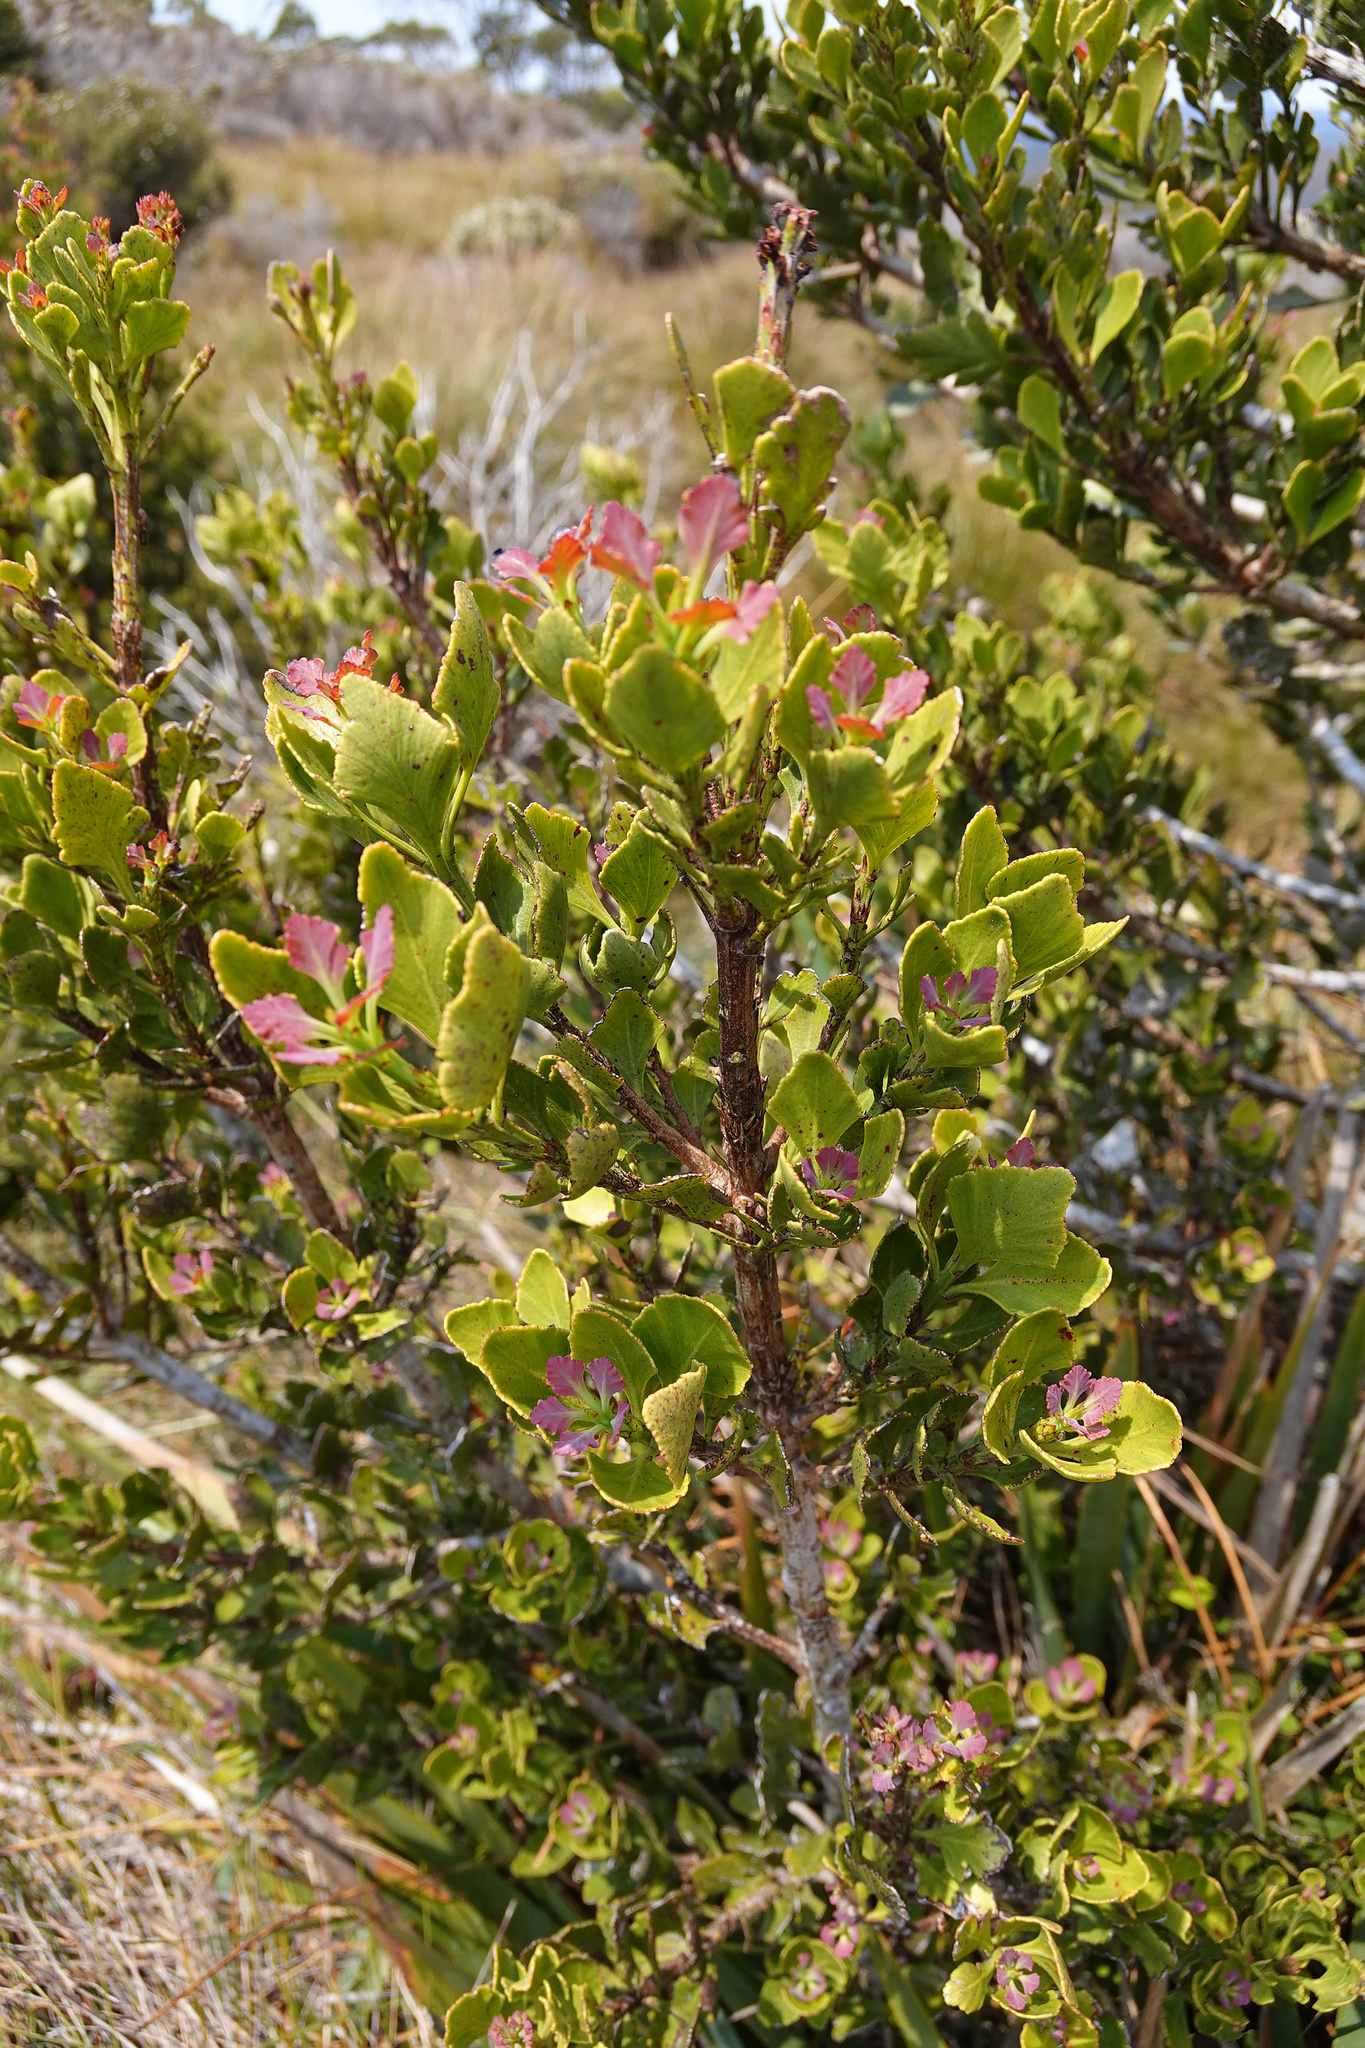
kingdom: Plantae
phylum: Tracheophyta
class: Pinopsida
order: Pinales
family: Phyllocladaceae
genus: Phyllocladus
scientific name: Phyllocladus aspleniifolius
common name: Celery-top pine
